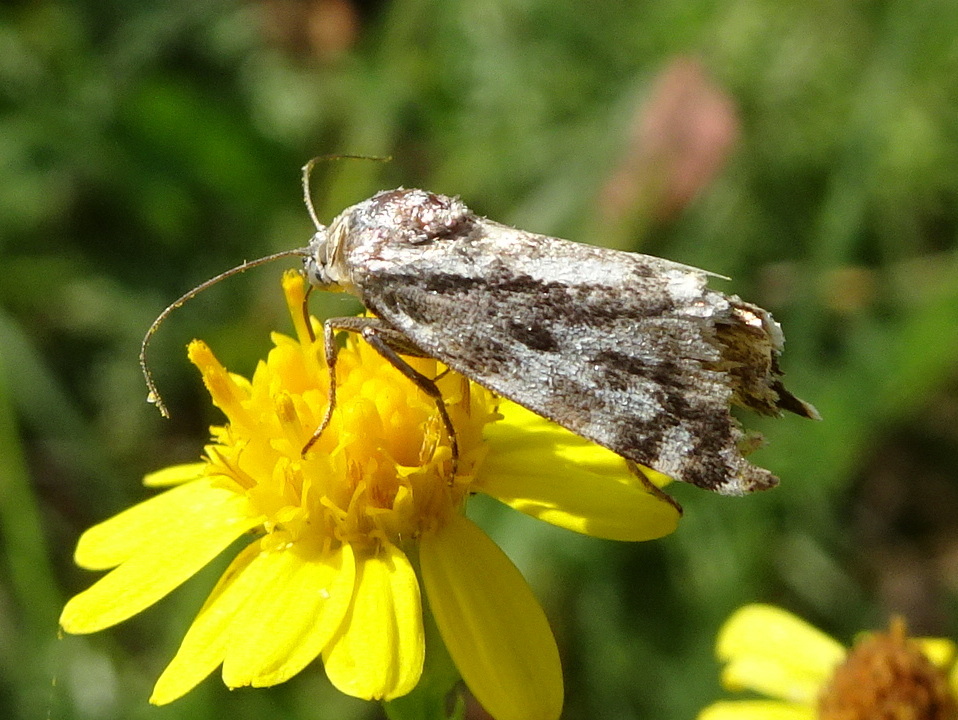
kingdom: Animalia
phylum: Arthropoda
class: Insecta
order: Lepidoptera
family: Noctuidae
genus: Acontia
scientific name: Acontia trabealis
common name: Spotted sulphur
